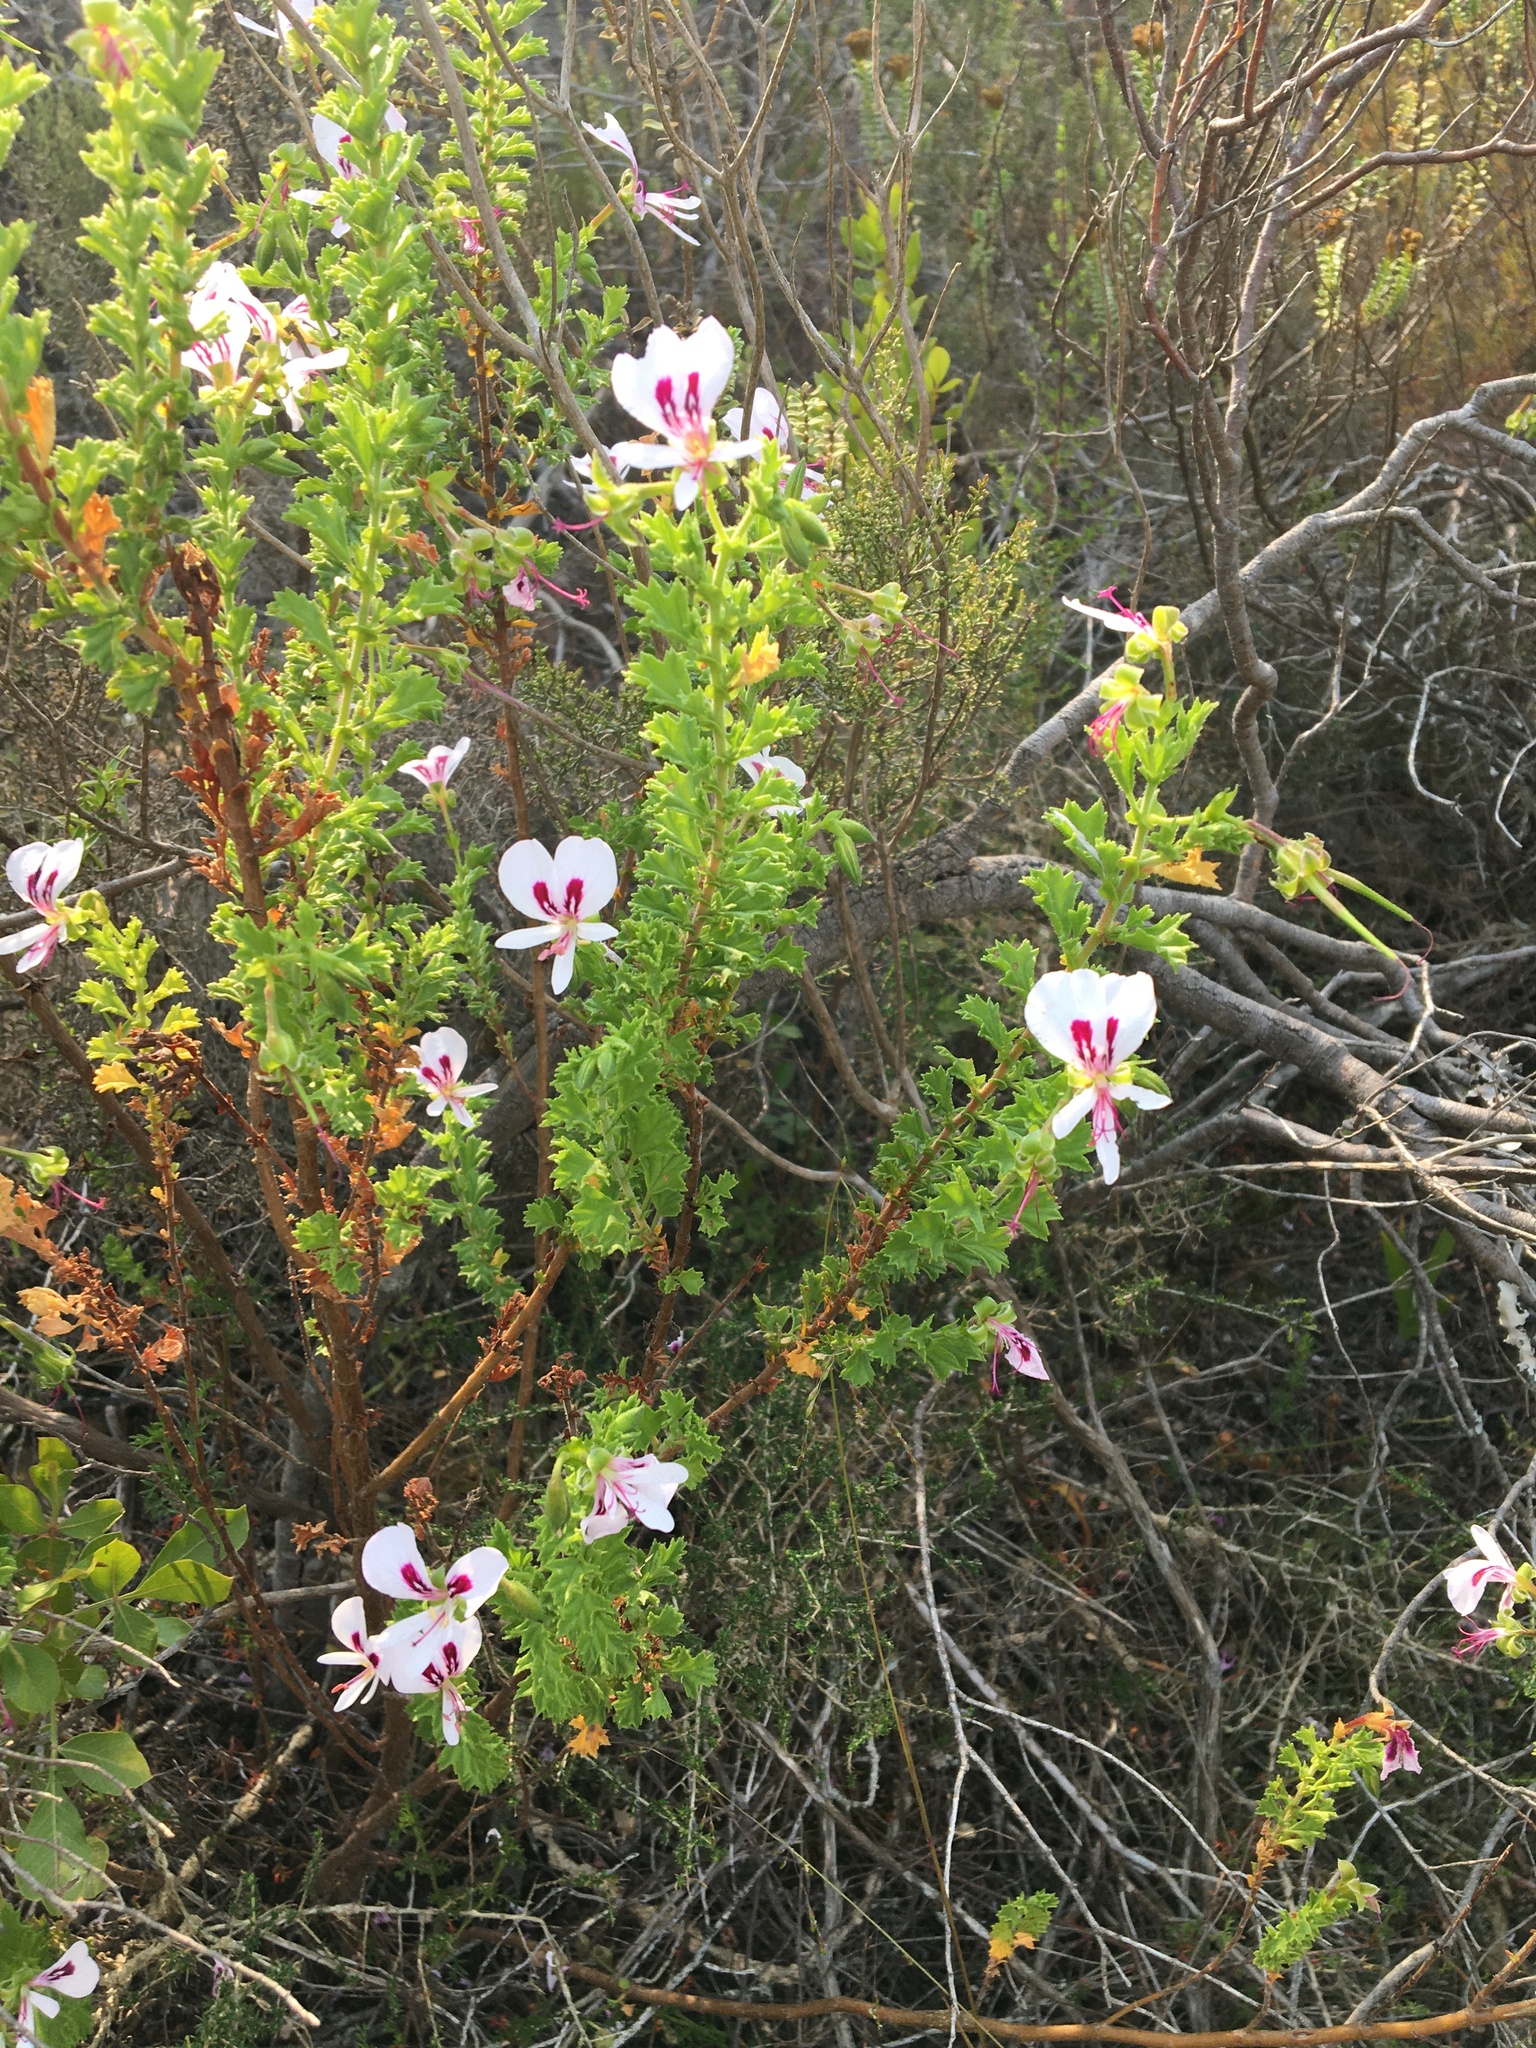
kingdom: Plantae
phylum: Tracheophyta
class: Magnoliopsida
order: Geraniales
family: Geraniaceae
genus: Pelargonium
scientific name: Pelargonium hermaniifolium
